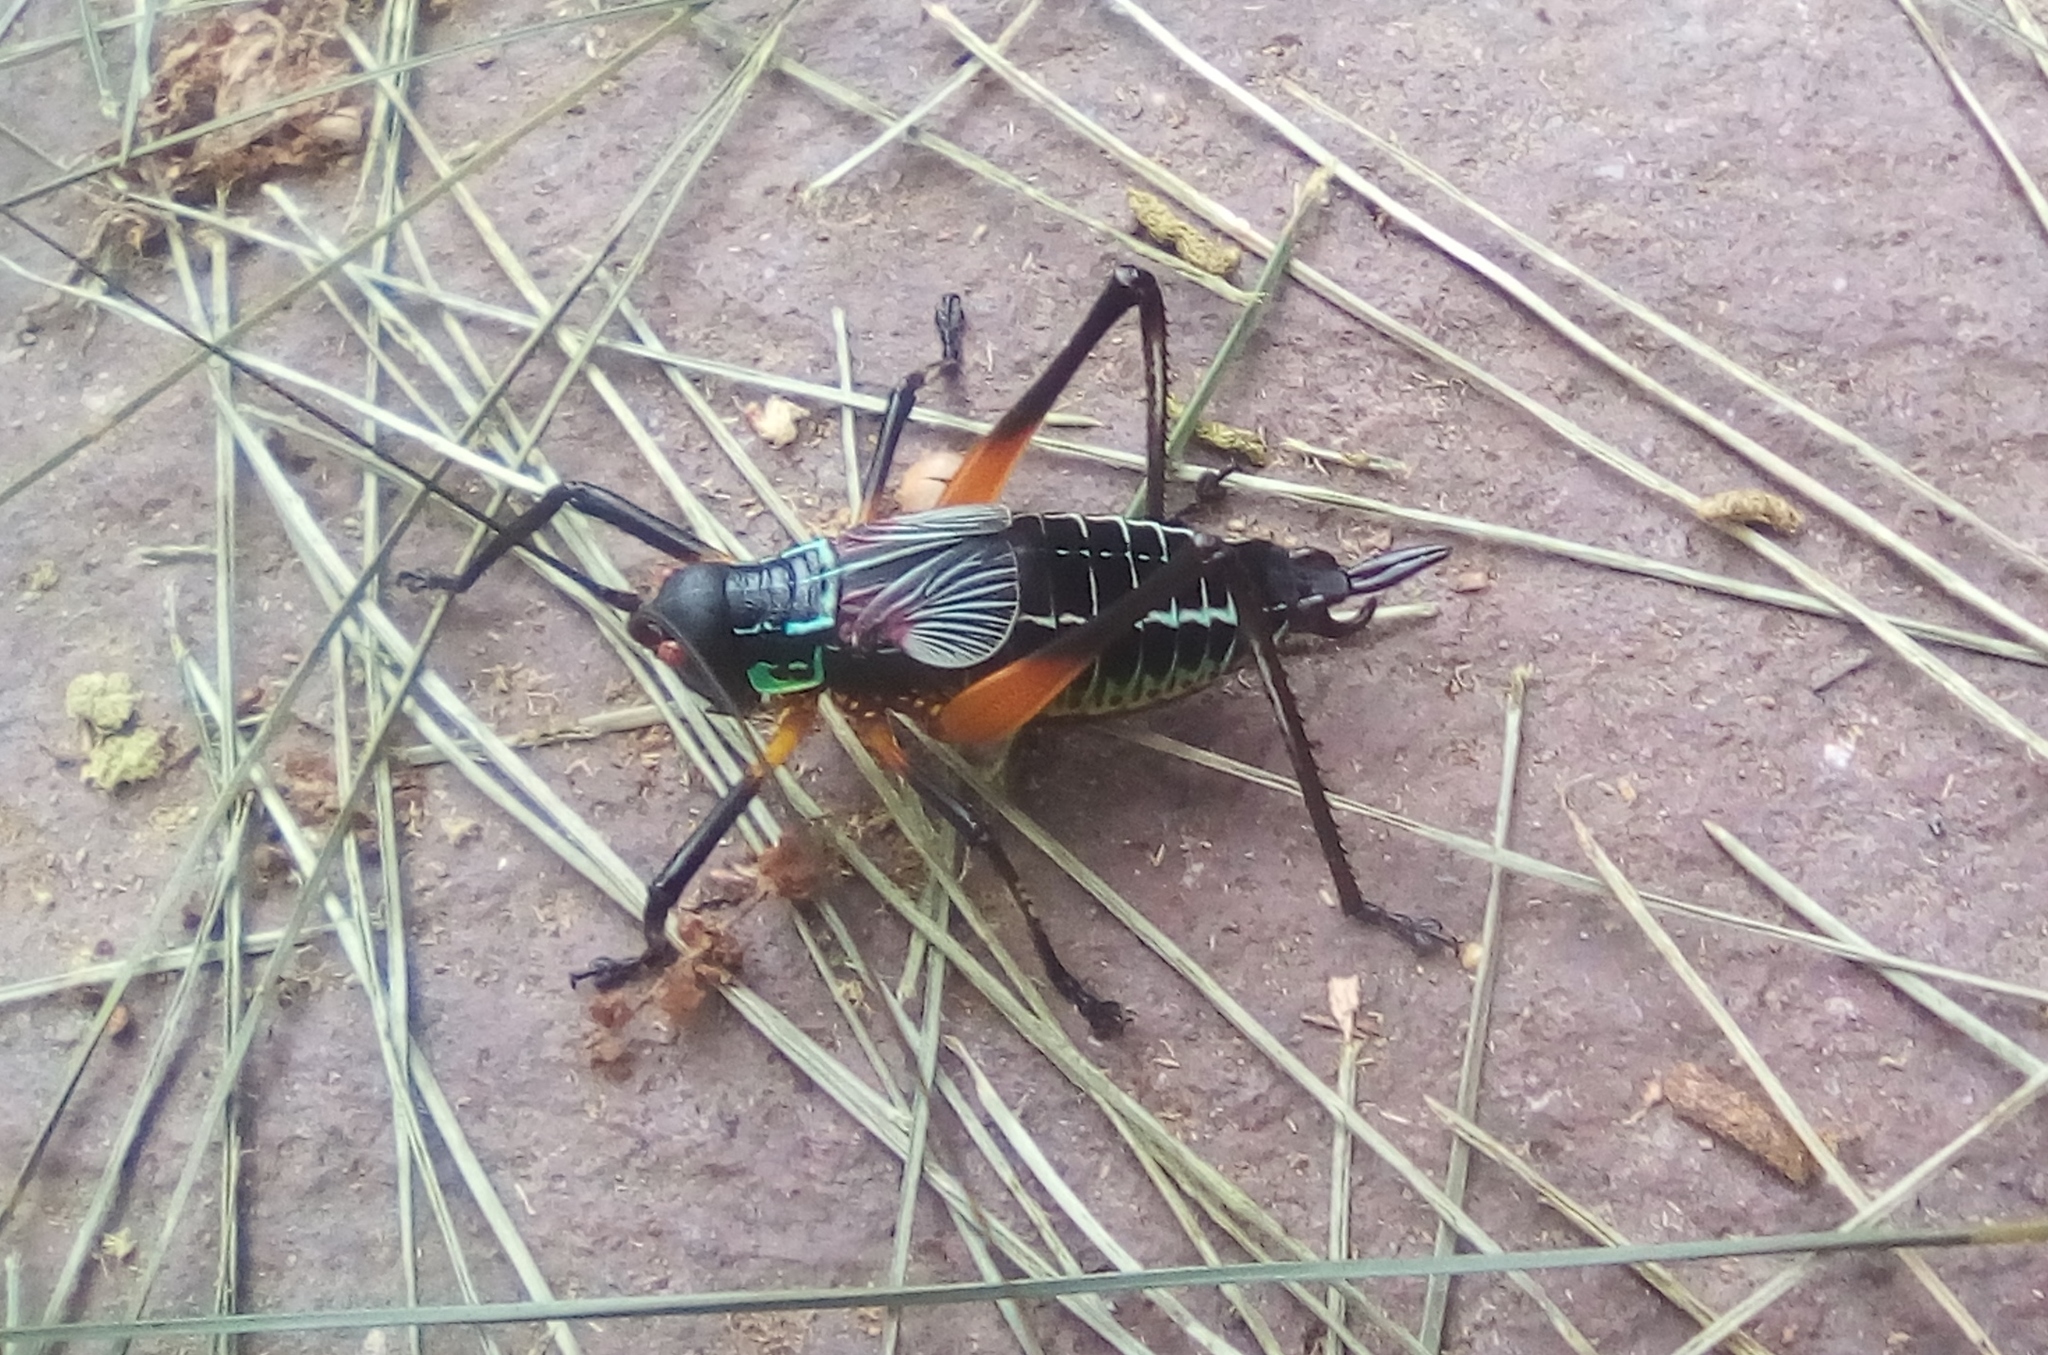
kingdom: Animalia
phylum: Arthropoda
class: Insecta
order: Orthoptera
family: Tettigoniidae
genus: Pterophylla
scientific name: Pterophylla beltrani
